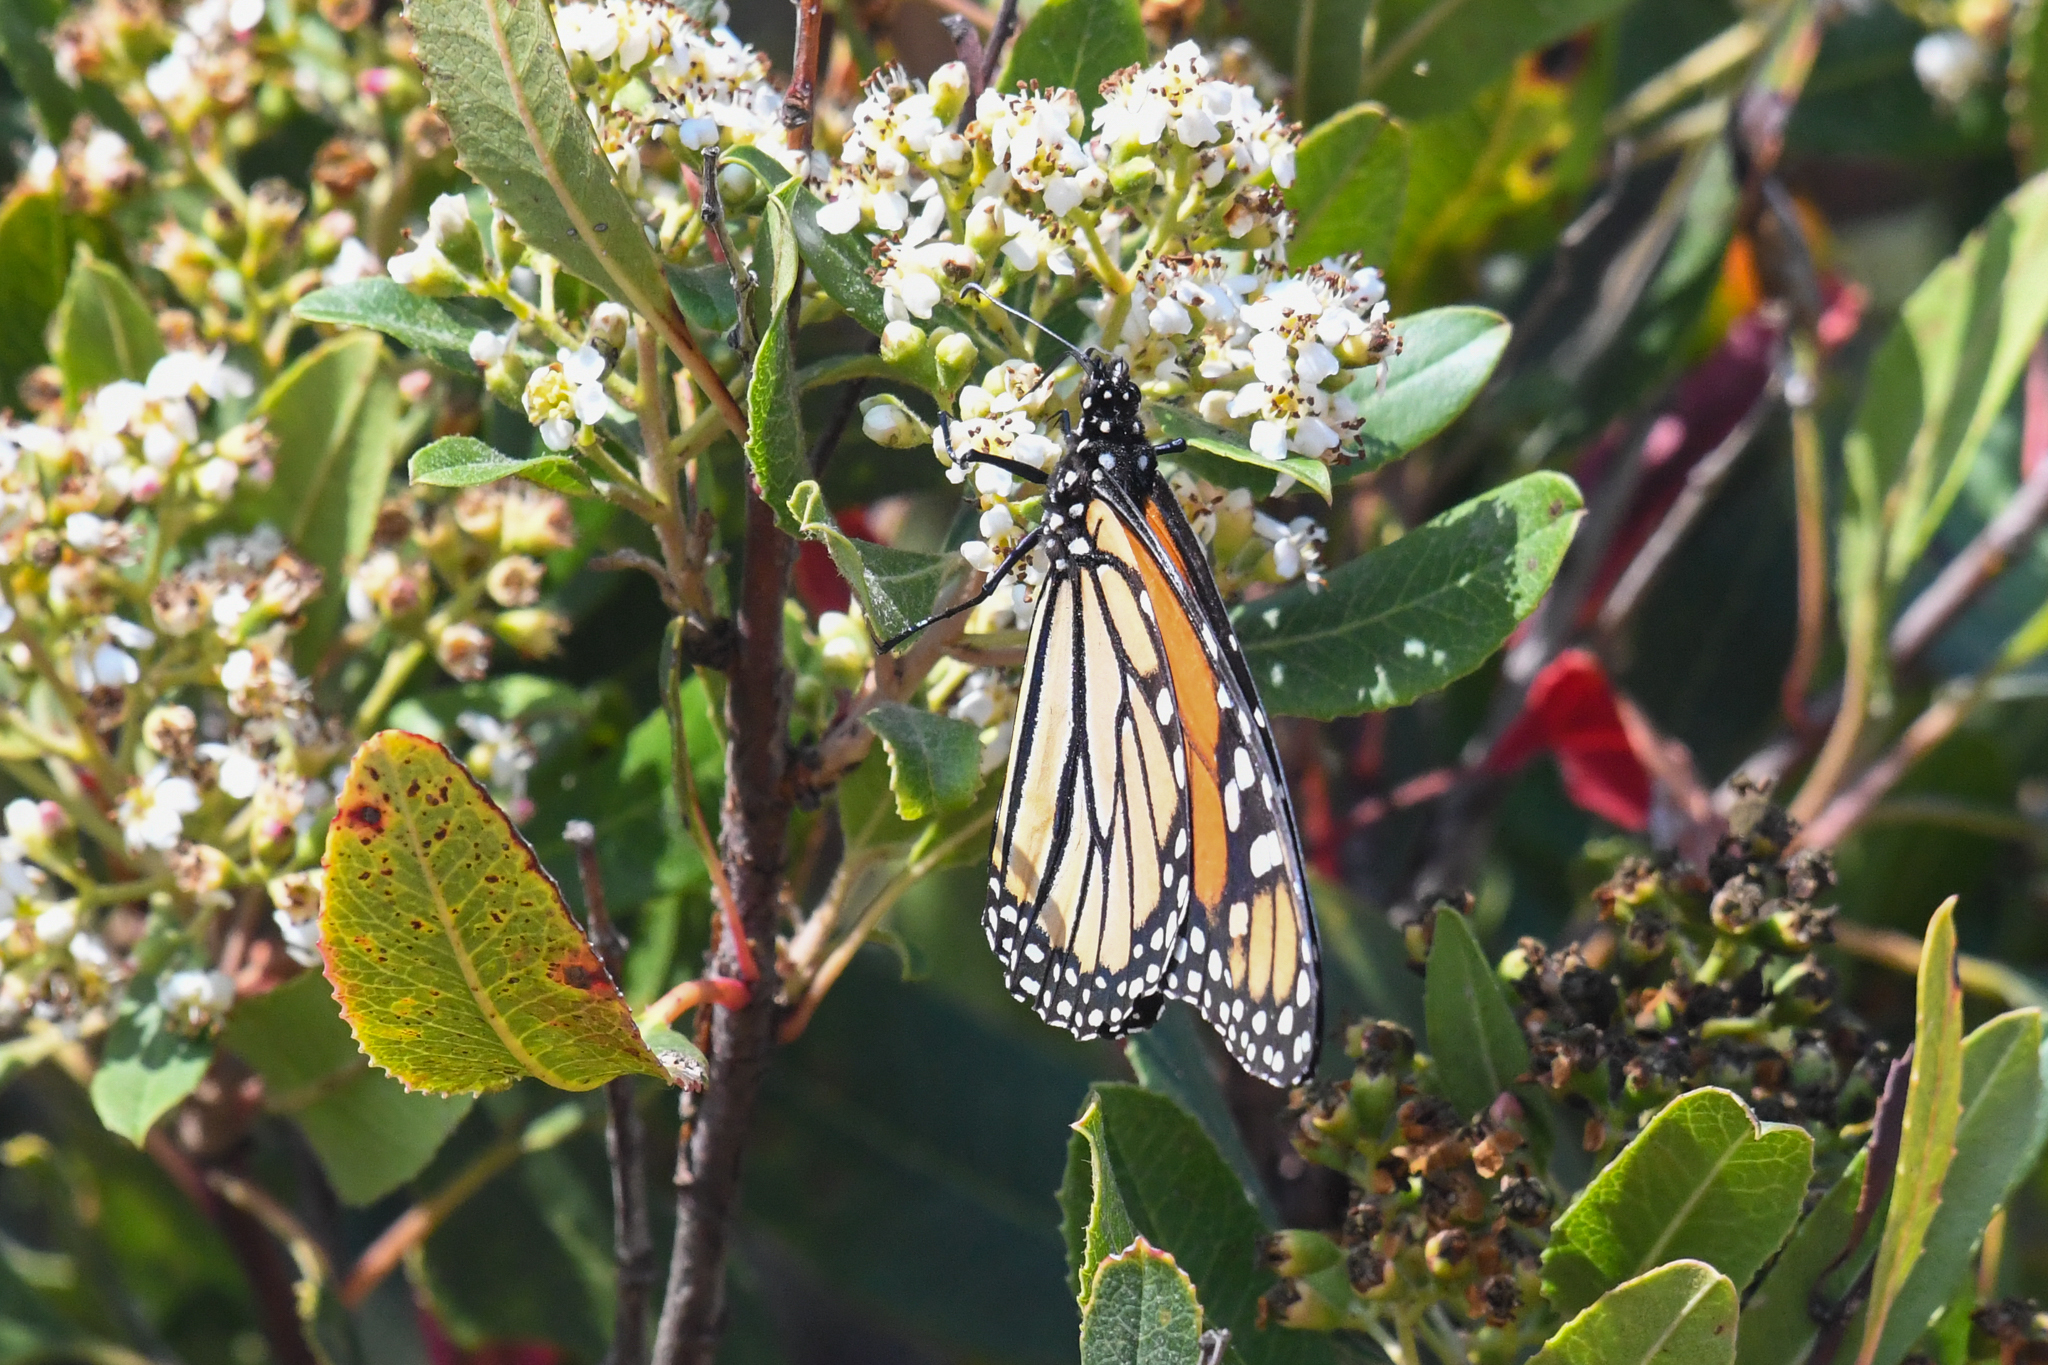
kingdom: Animalia
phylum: Arthropoda
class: Insecta
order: Lepidoptera
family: Nymphalidae
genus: Danaus
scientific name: Danaus plexippus
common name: Monarch
